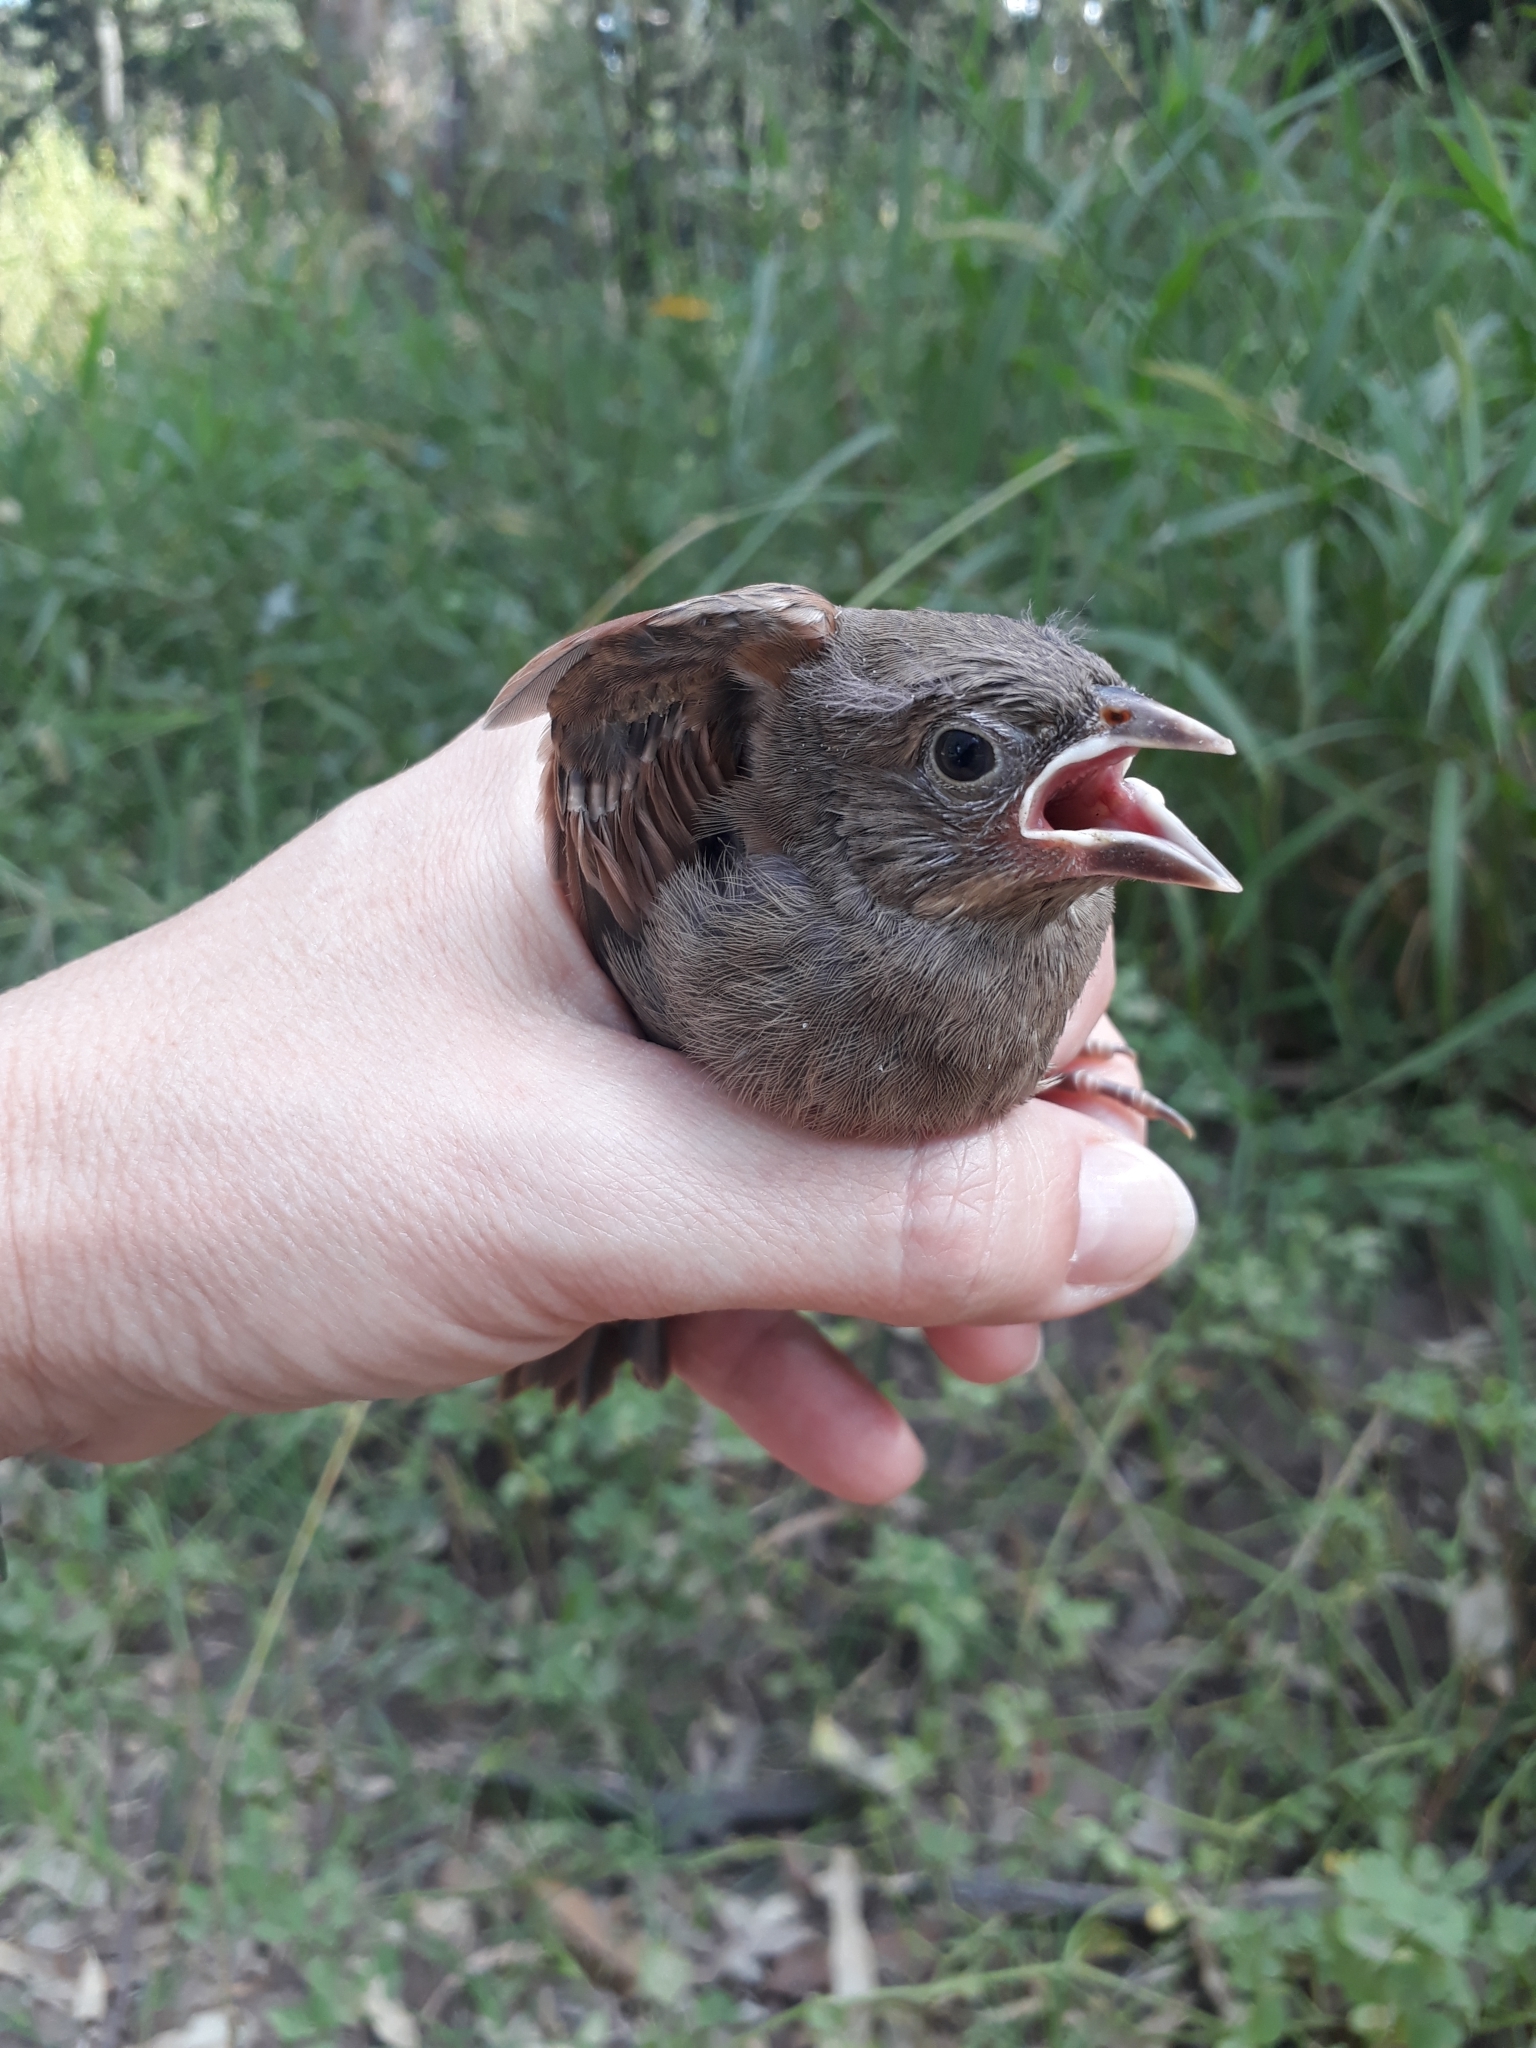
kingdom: Animalia
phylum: Chordata
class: Aves
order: Passeriformes
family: Icteridae
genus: Agelaioides
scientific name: Agelaioides badius
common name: Baywing
